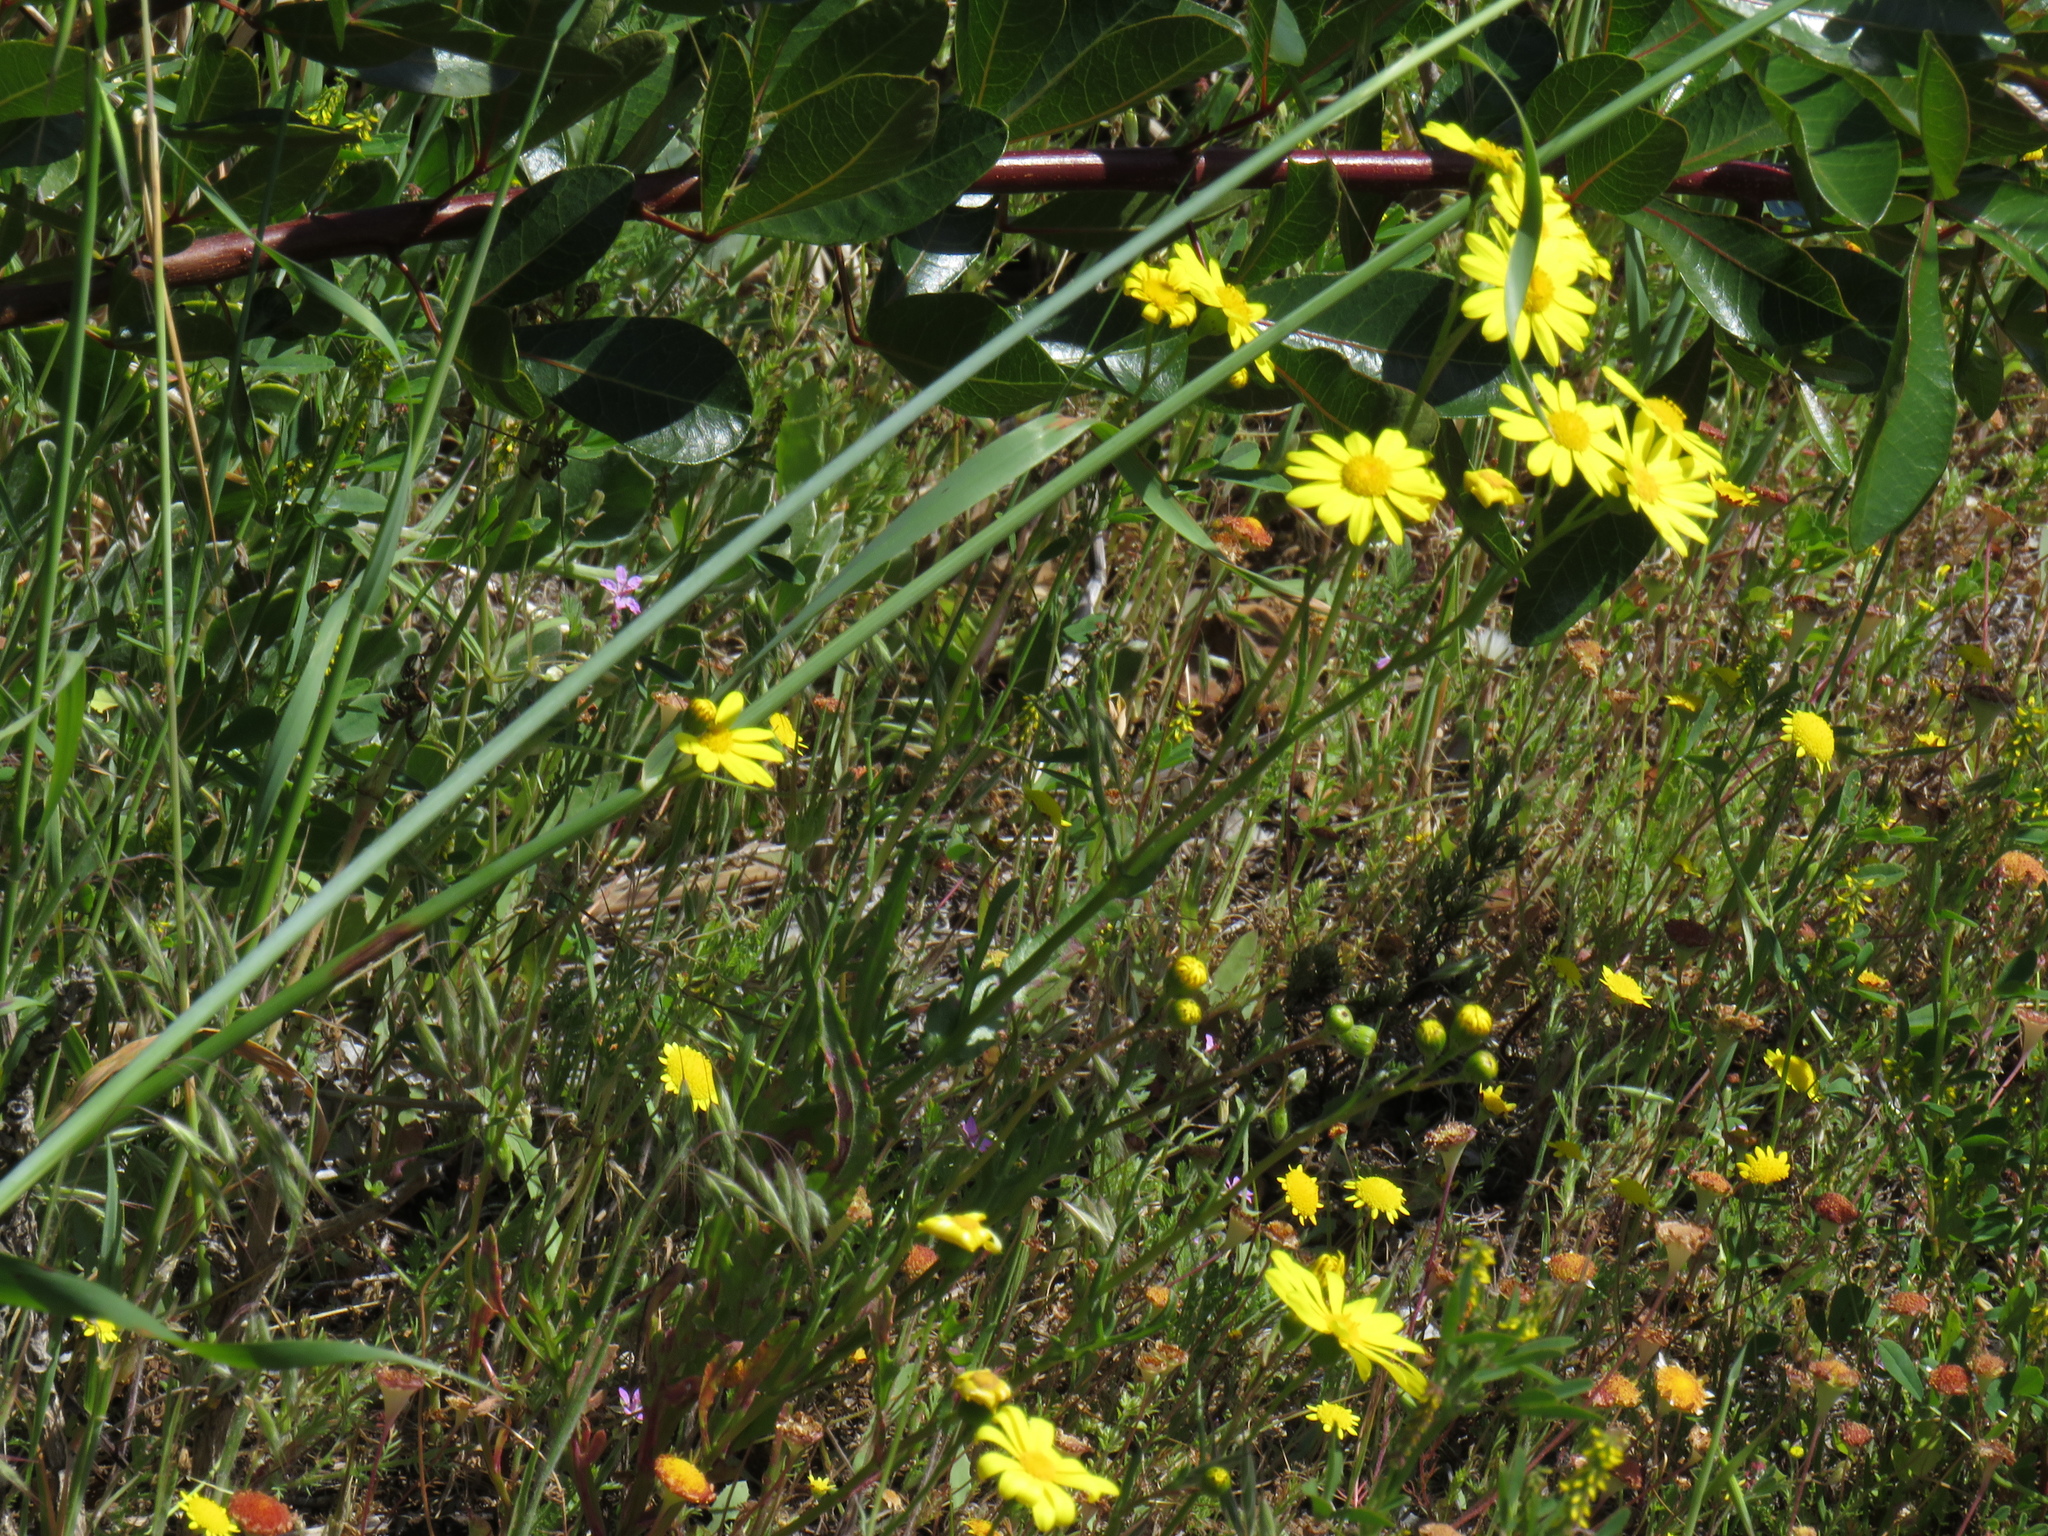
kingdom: Plantae
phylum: Tracheophyta
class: Magnoliopsida
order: Asterales
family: Asteraceae
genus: Senecio
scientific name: Senecio littoreus
